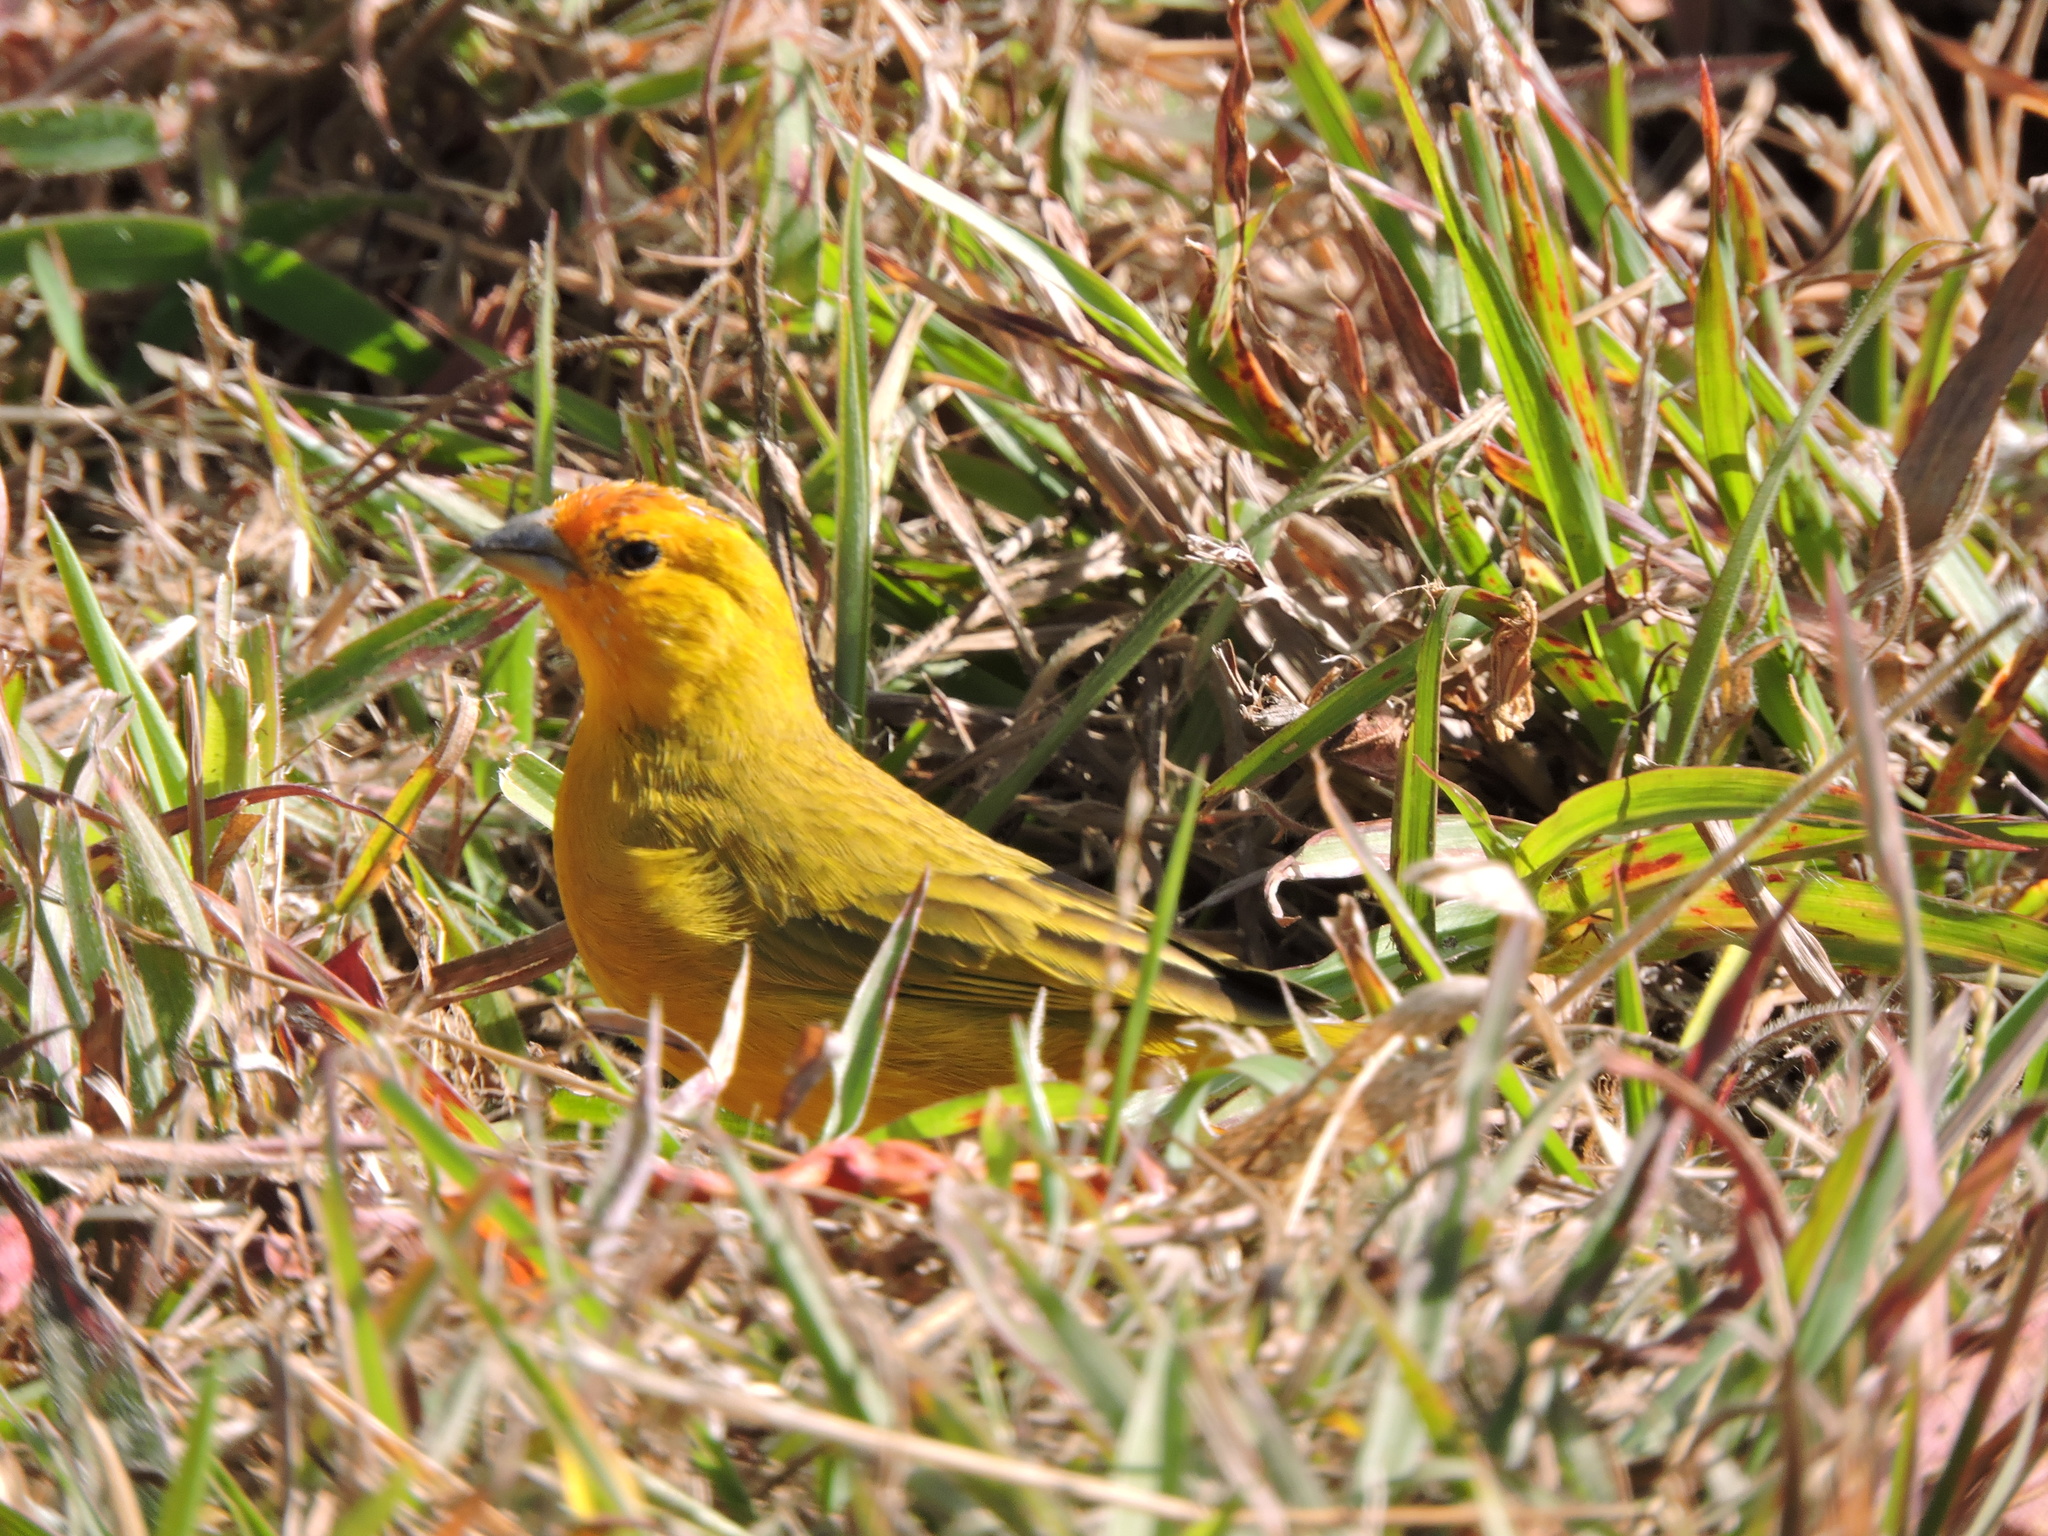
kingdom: Animalia
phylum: Chordata
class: Aves
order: Passeriformes
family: Thraupidae
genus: Sicalis
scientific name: Sicalis flaveola
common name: Saffron finch
